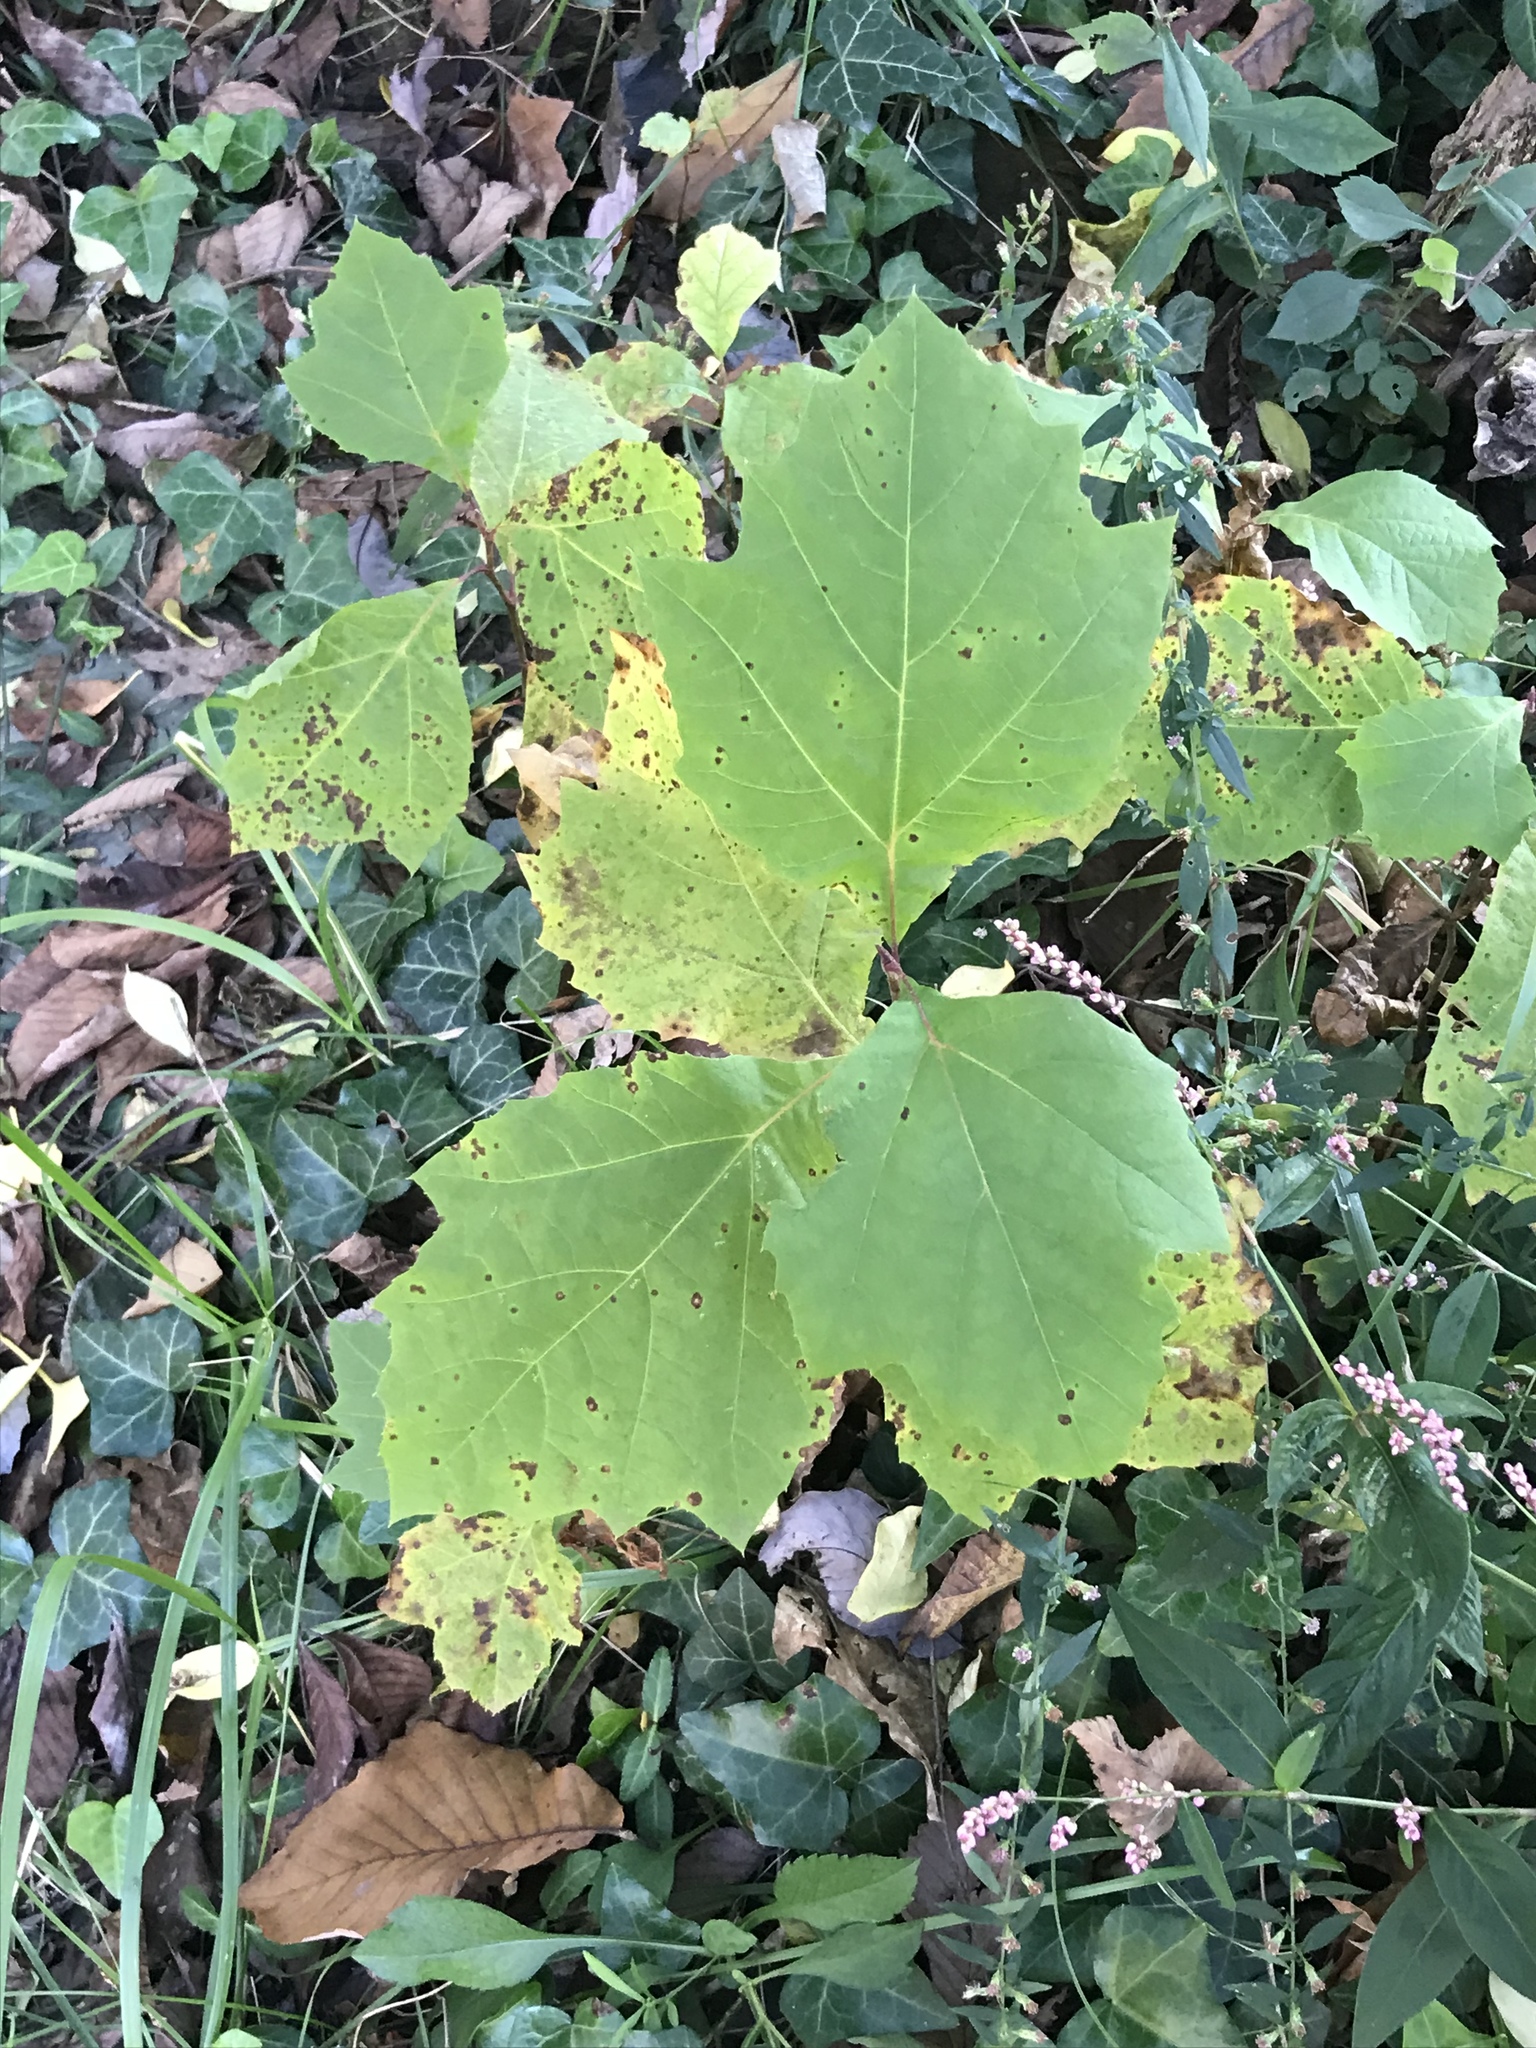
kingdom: Plantae
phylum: Tracheophyta
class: Magnoliopsida
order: Proteales
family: Platanaceae
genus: Platanus
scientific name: Platanus occidentalis
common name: American sycamore
